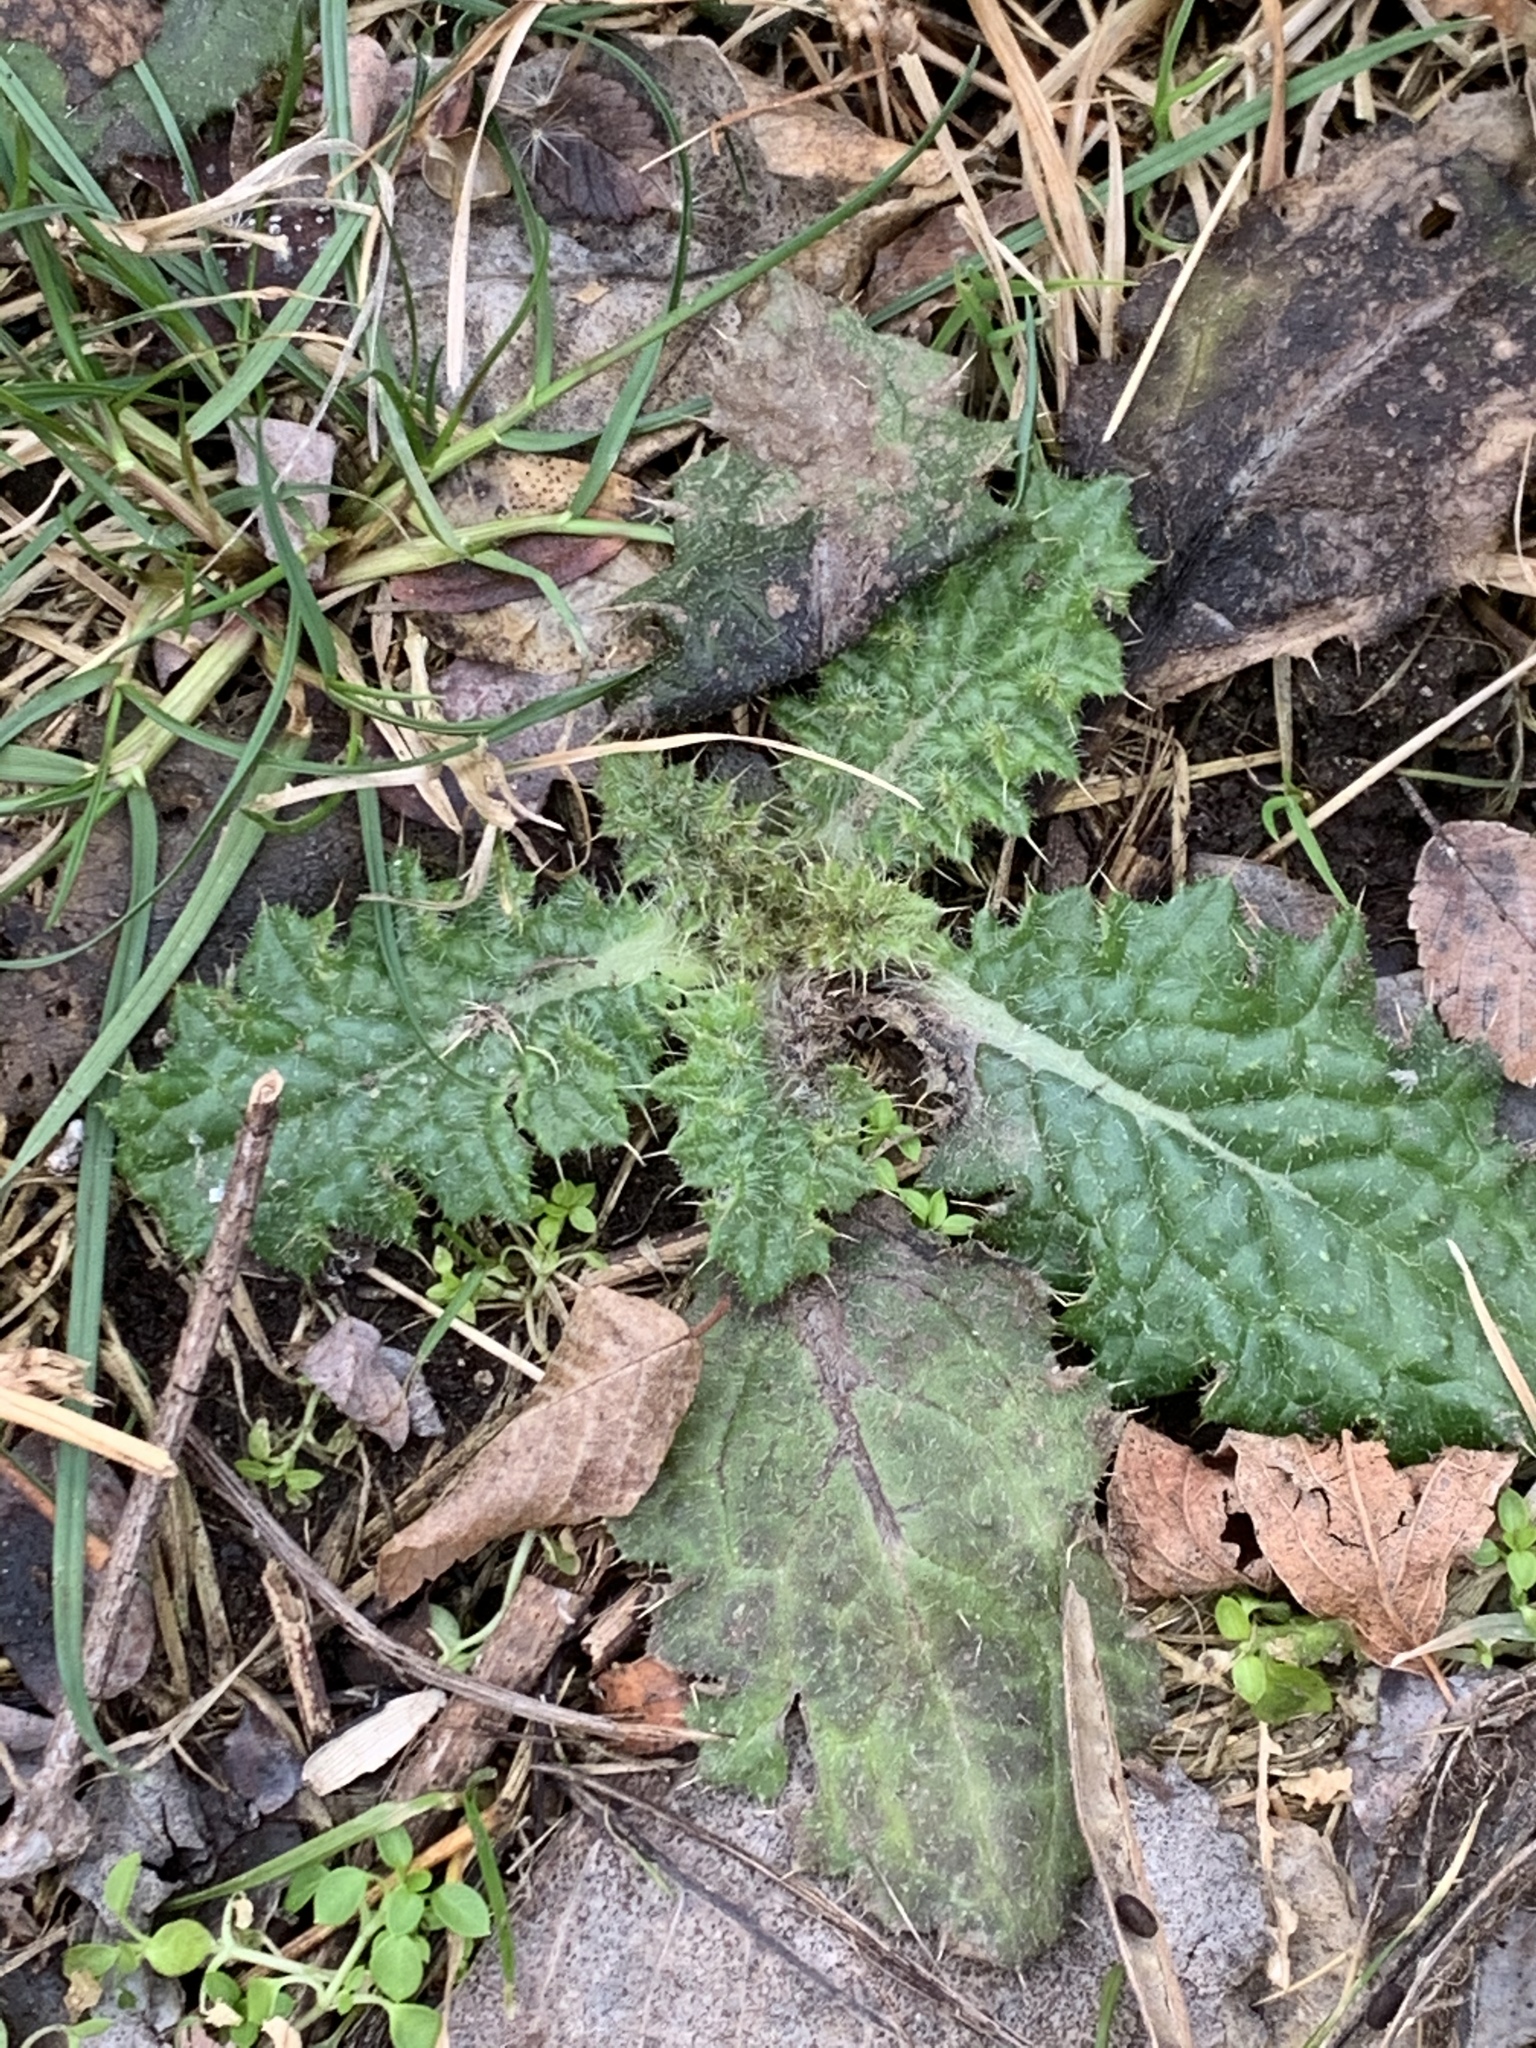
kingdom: Plantae
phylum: Tracheophyta
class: Magnoliopsida
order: Asterales
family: Asteraceae
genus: Cirsium
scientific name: Cirsium vulgare
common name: Bull thistle
